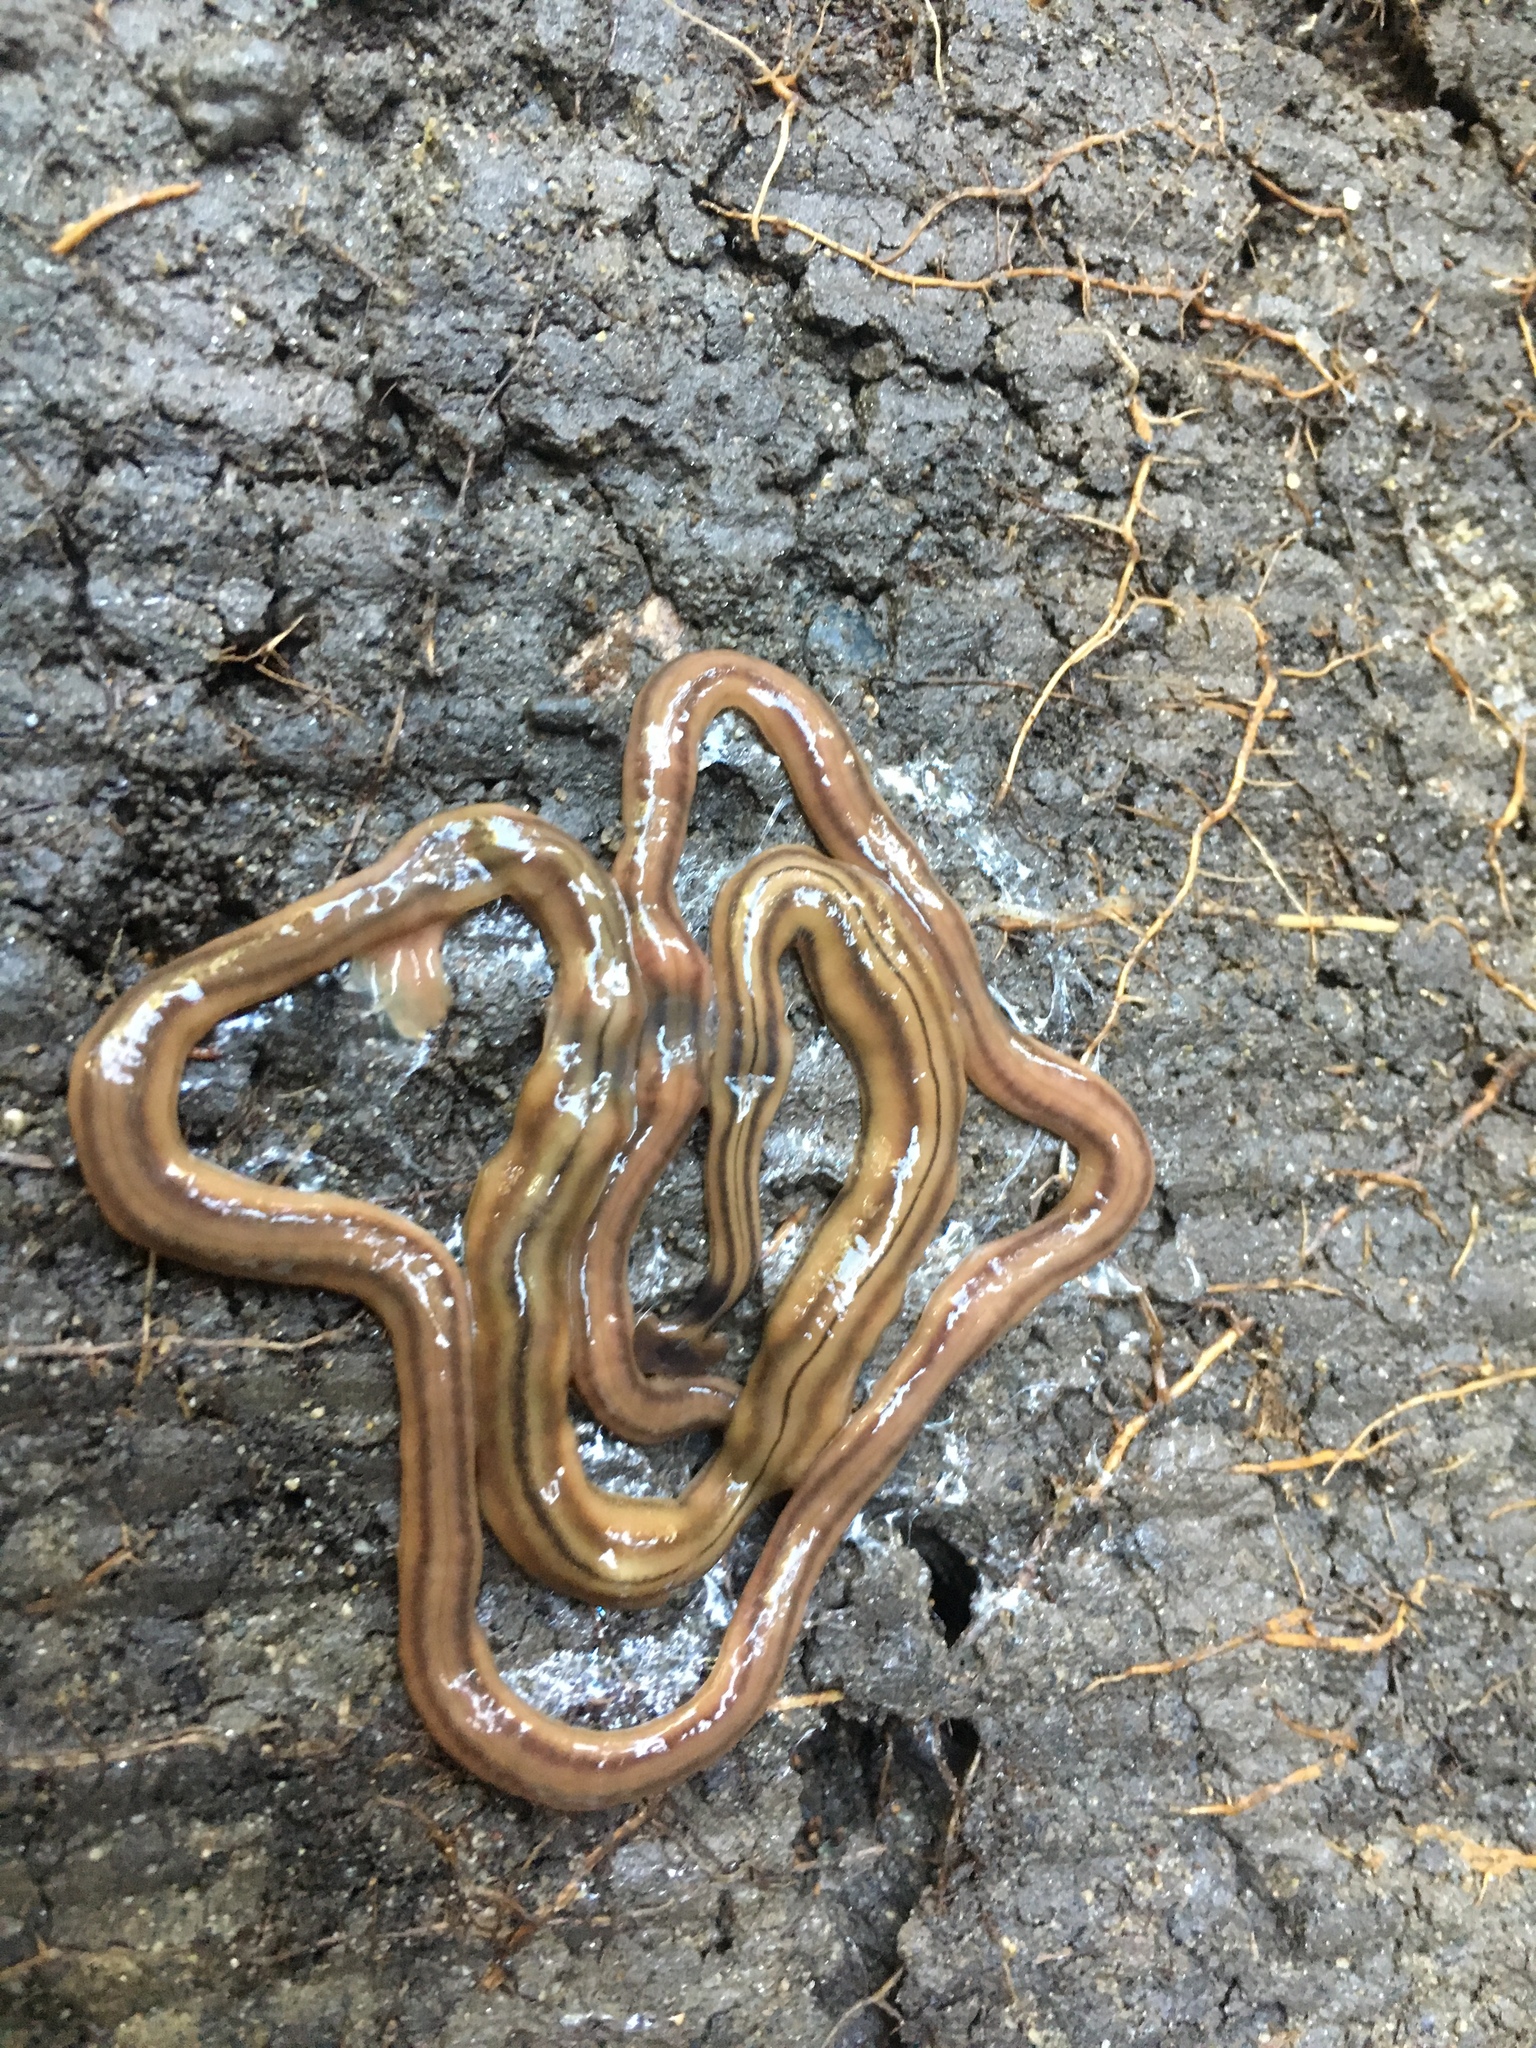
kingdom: Animalia
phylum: Platyhelminthes
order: Tricladida
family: Geoplanidae
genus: Bipalium
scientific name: Bipalium kewense
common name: Hammerhead flatworm
